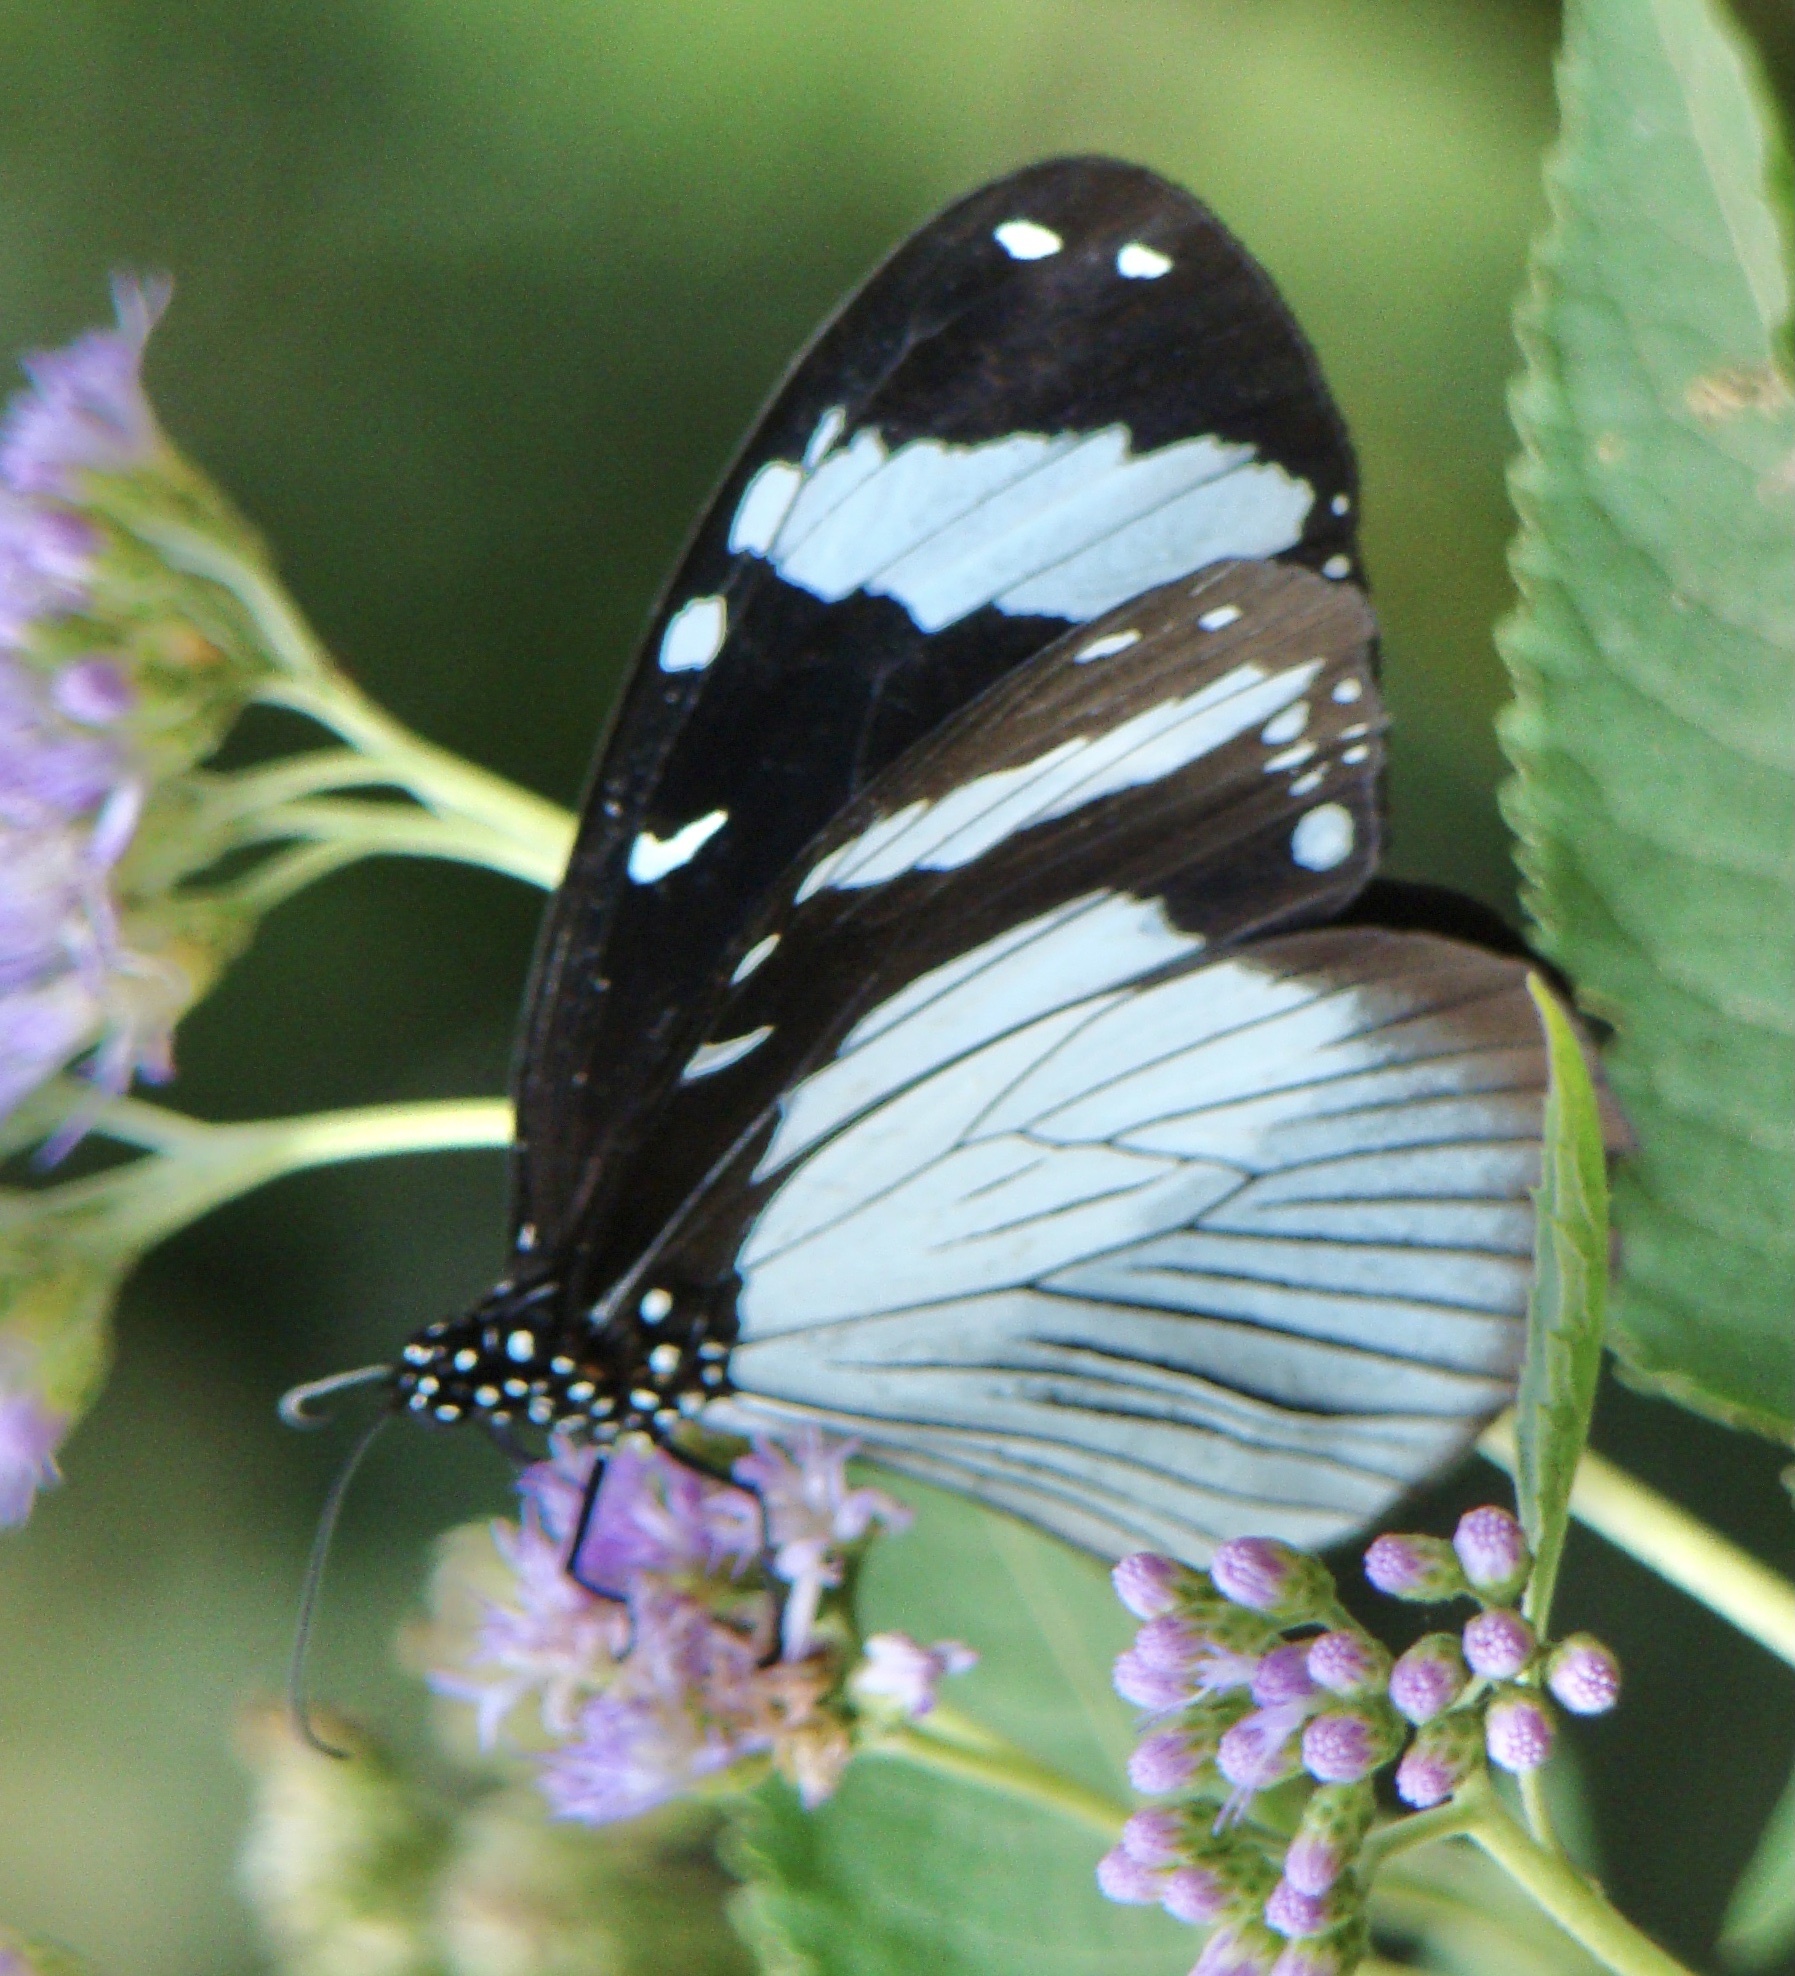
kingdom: Animalia
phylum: Arthropoda
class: Insecta
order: Lepidoptera
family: Nymphalidae
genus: Amauris
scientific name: Amauris niavius
